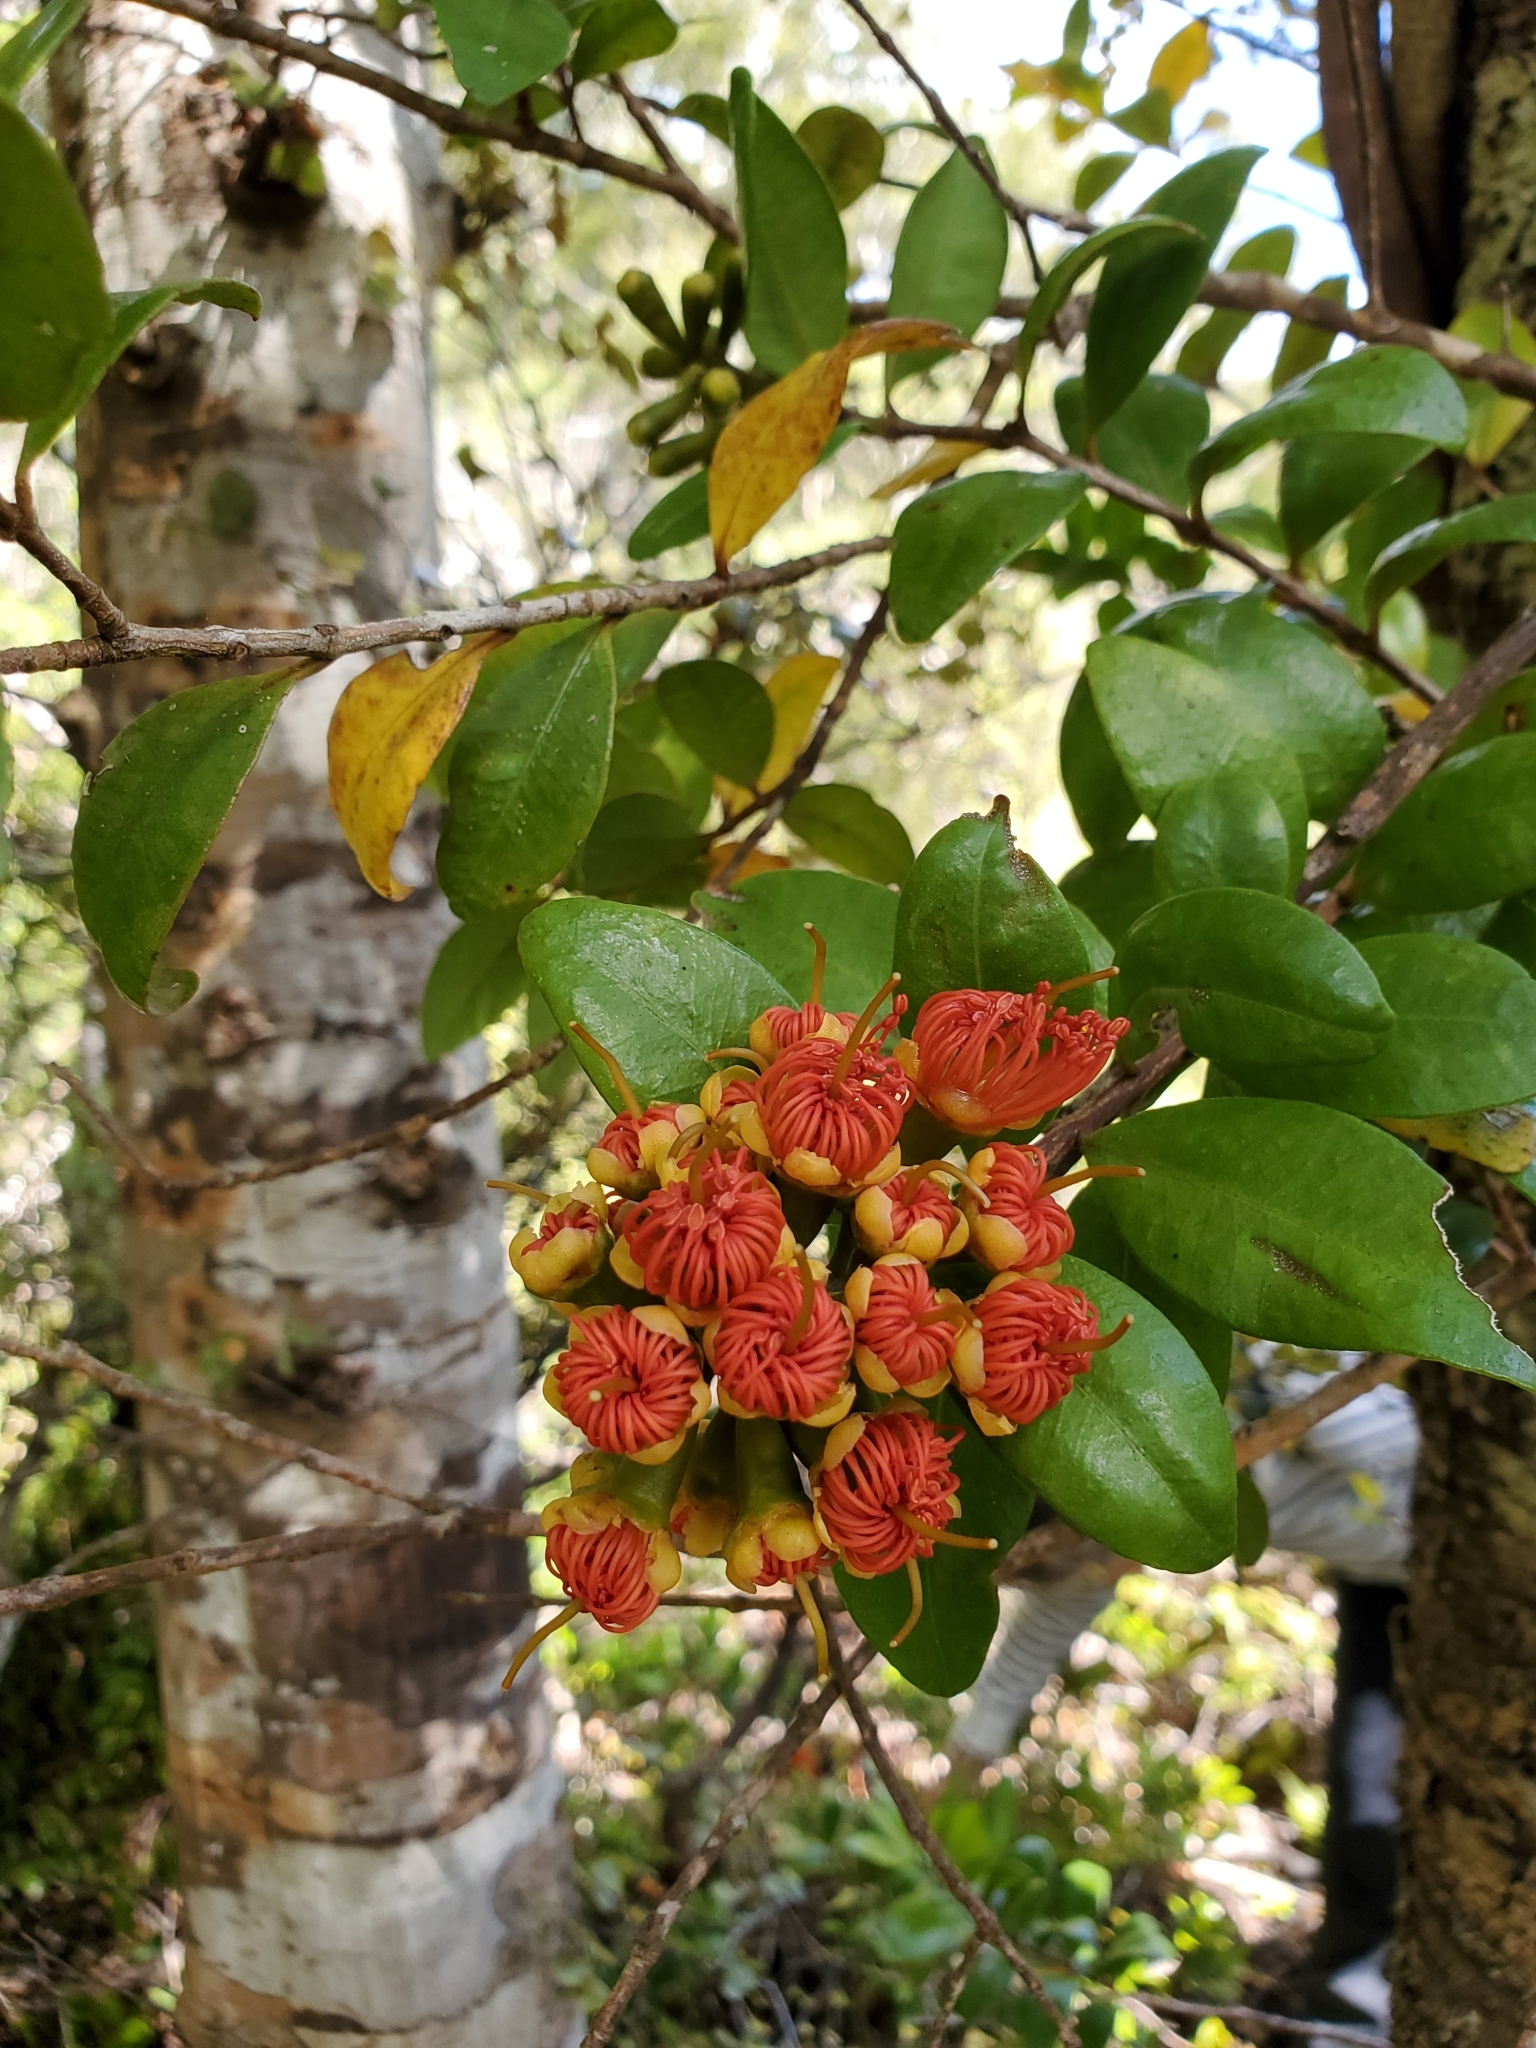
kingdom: Plantae
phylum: Tracheophyta
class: Magnoliopsida
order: Myrtales
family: Myrtaceae
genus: Metrosideros
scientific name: Metrosideros fulgens
